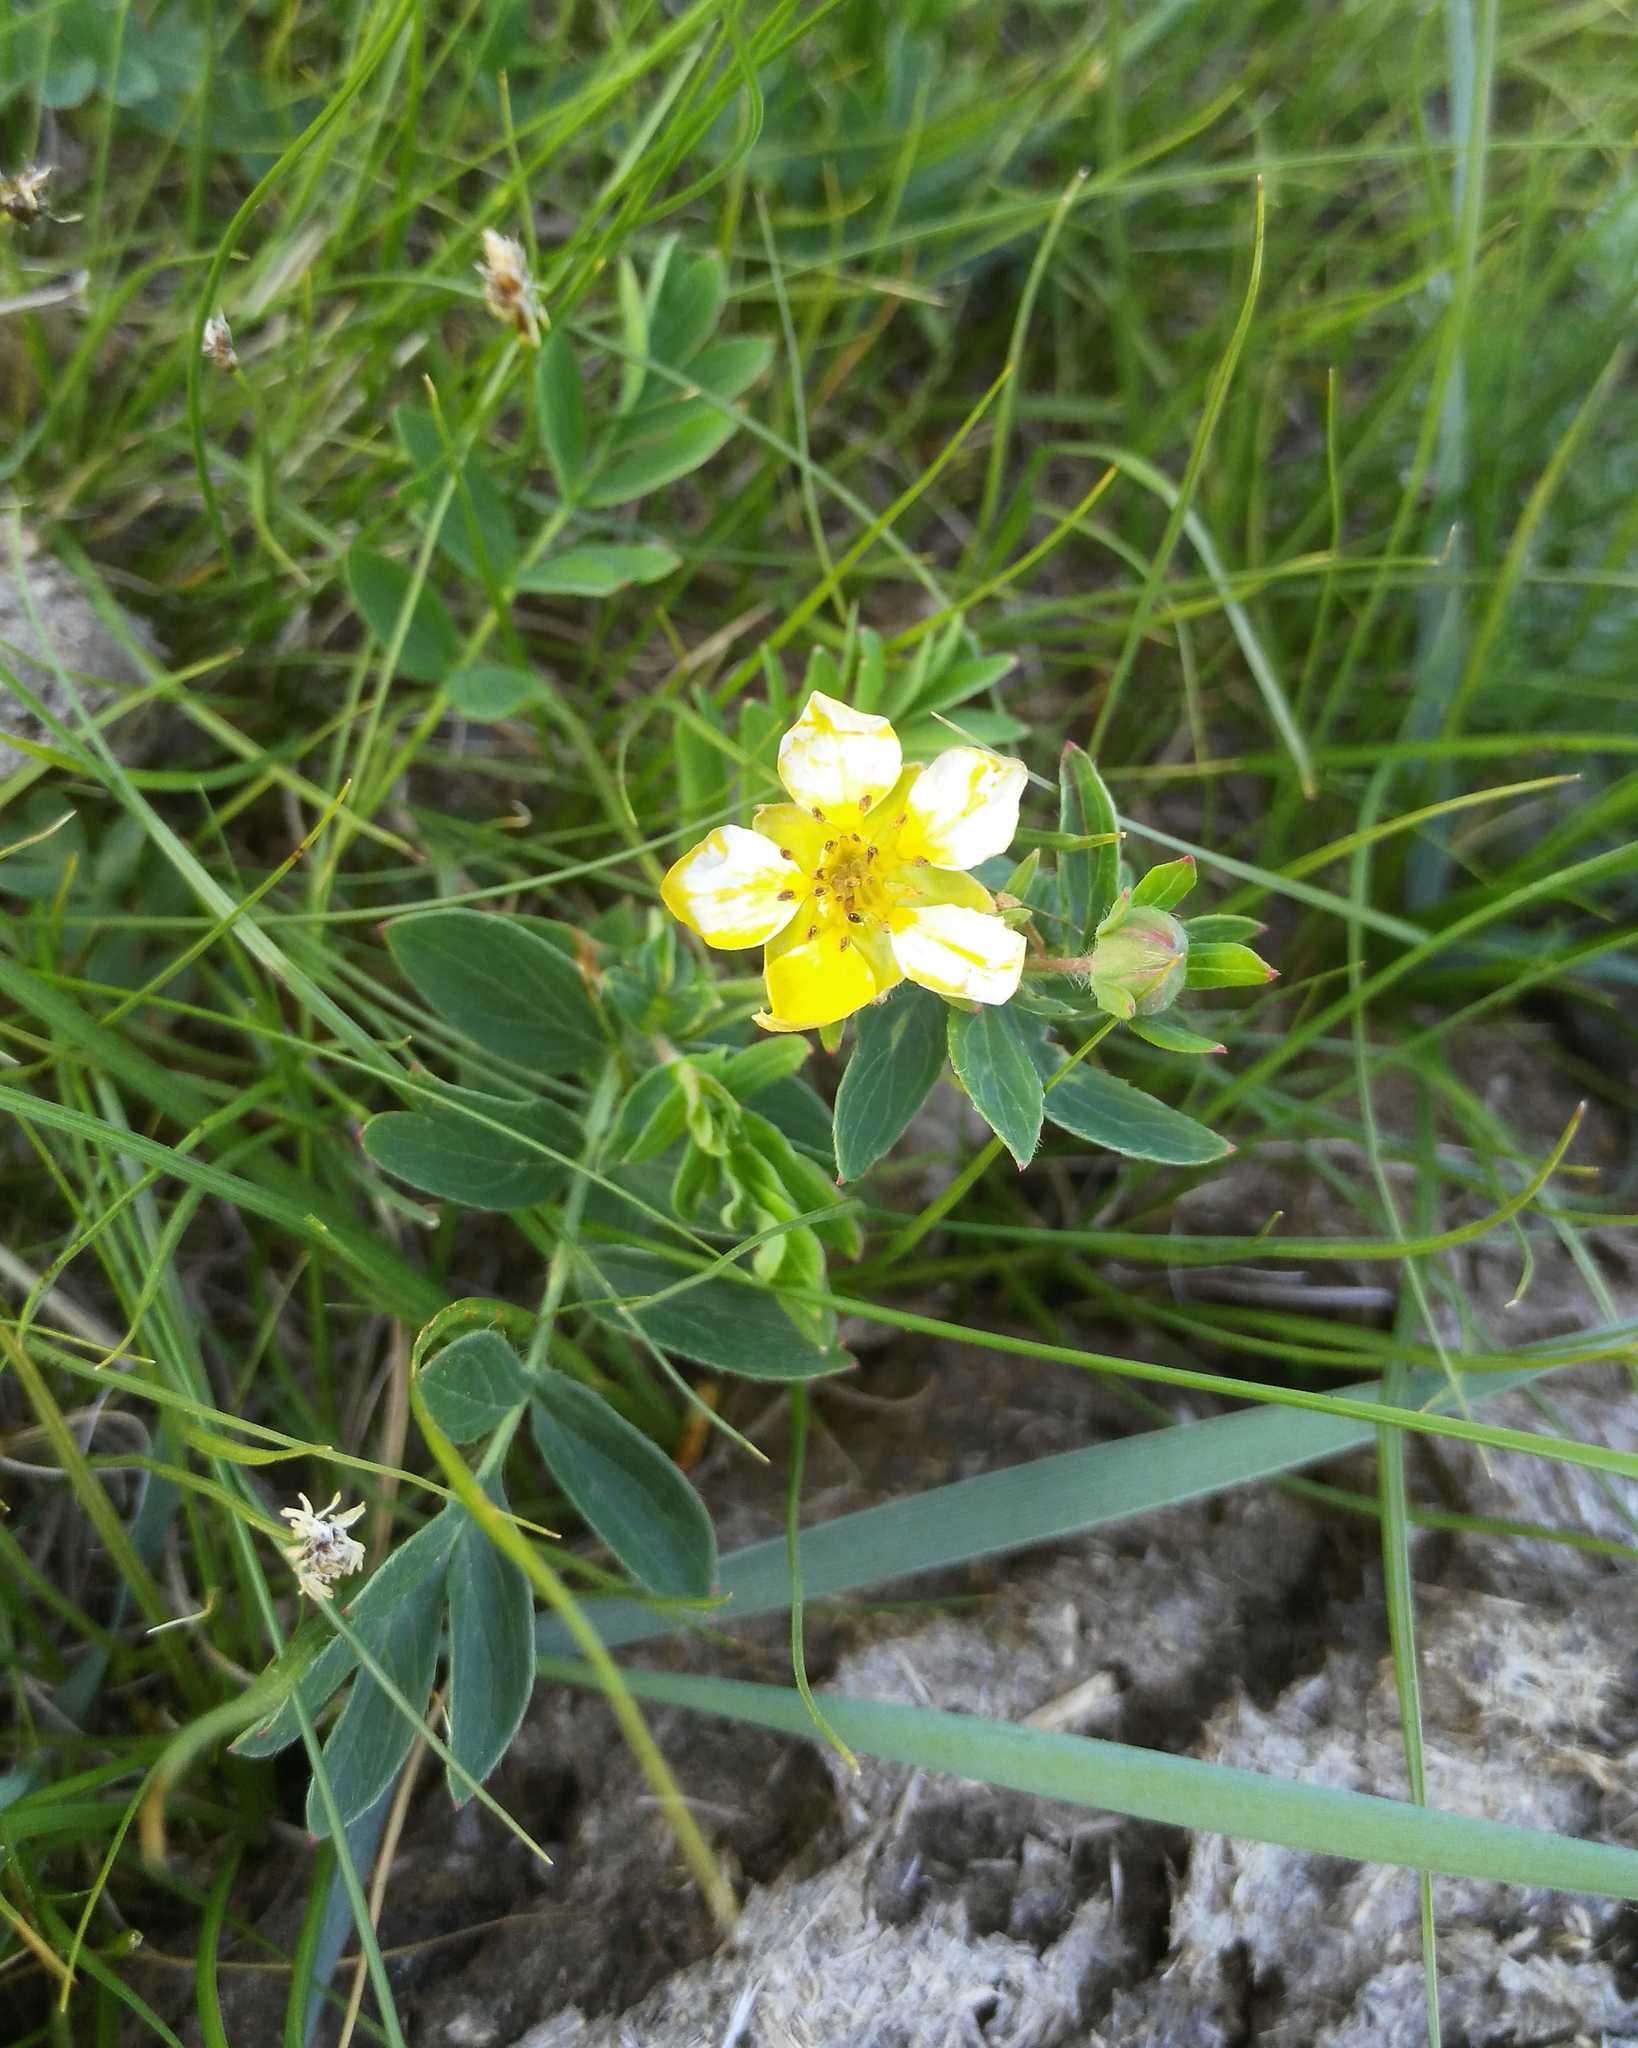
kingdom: Plantae
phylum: Tracheophyta
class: Magnoliopsida
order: Rosales
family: Rosaceae
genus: Sibbaldianthe
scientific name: Sibbaldianthe bifurca
